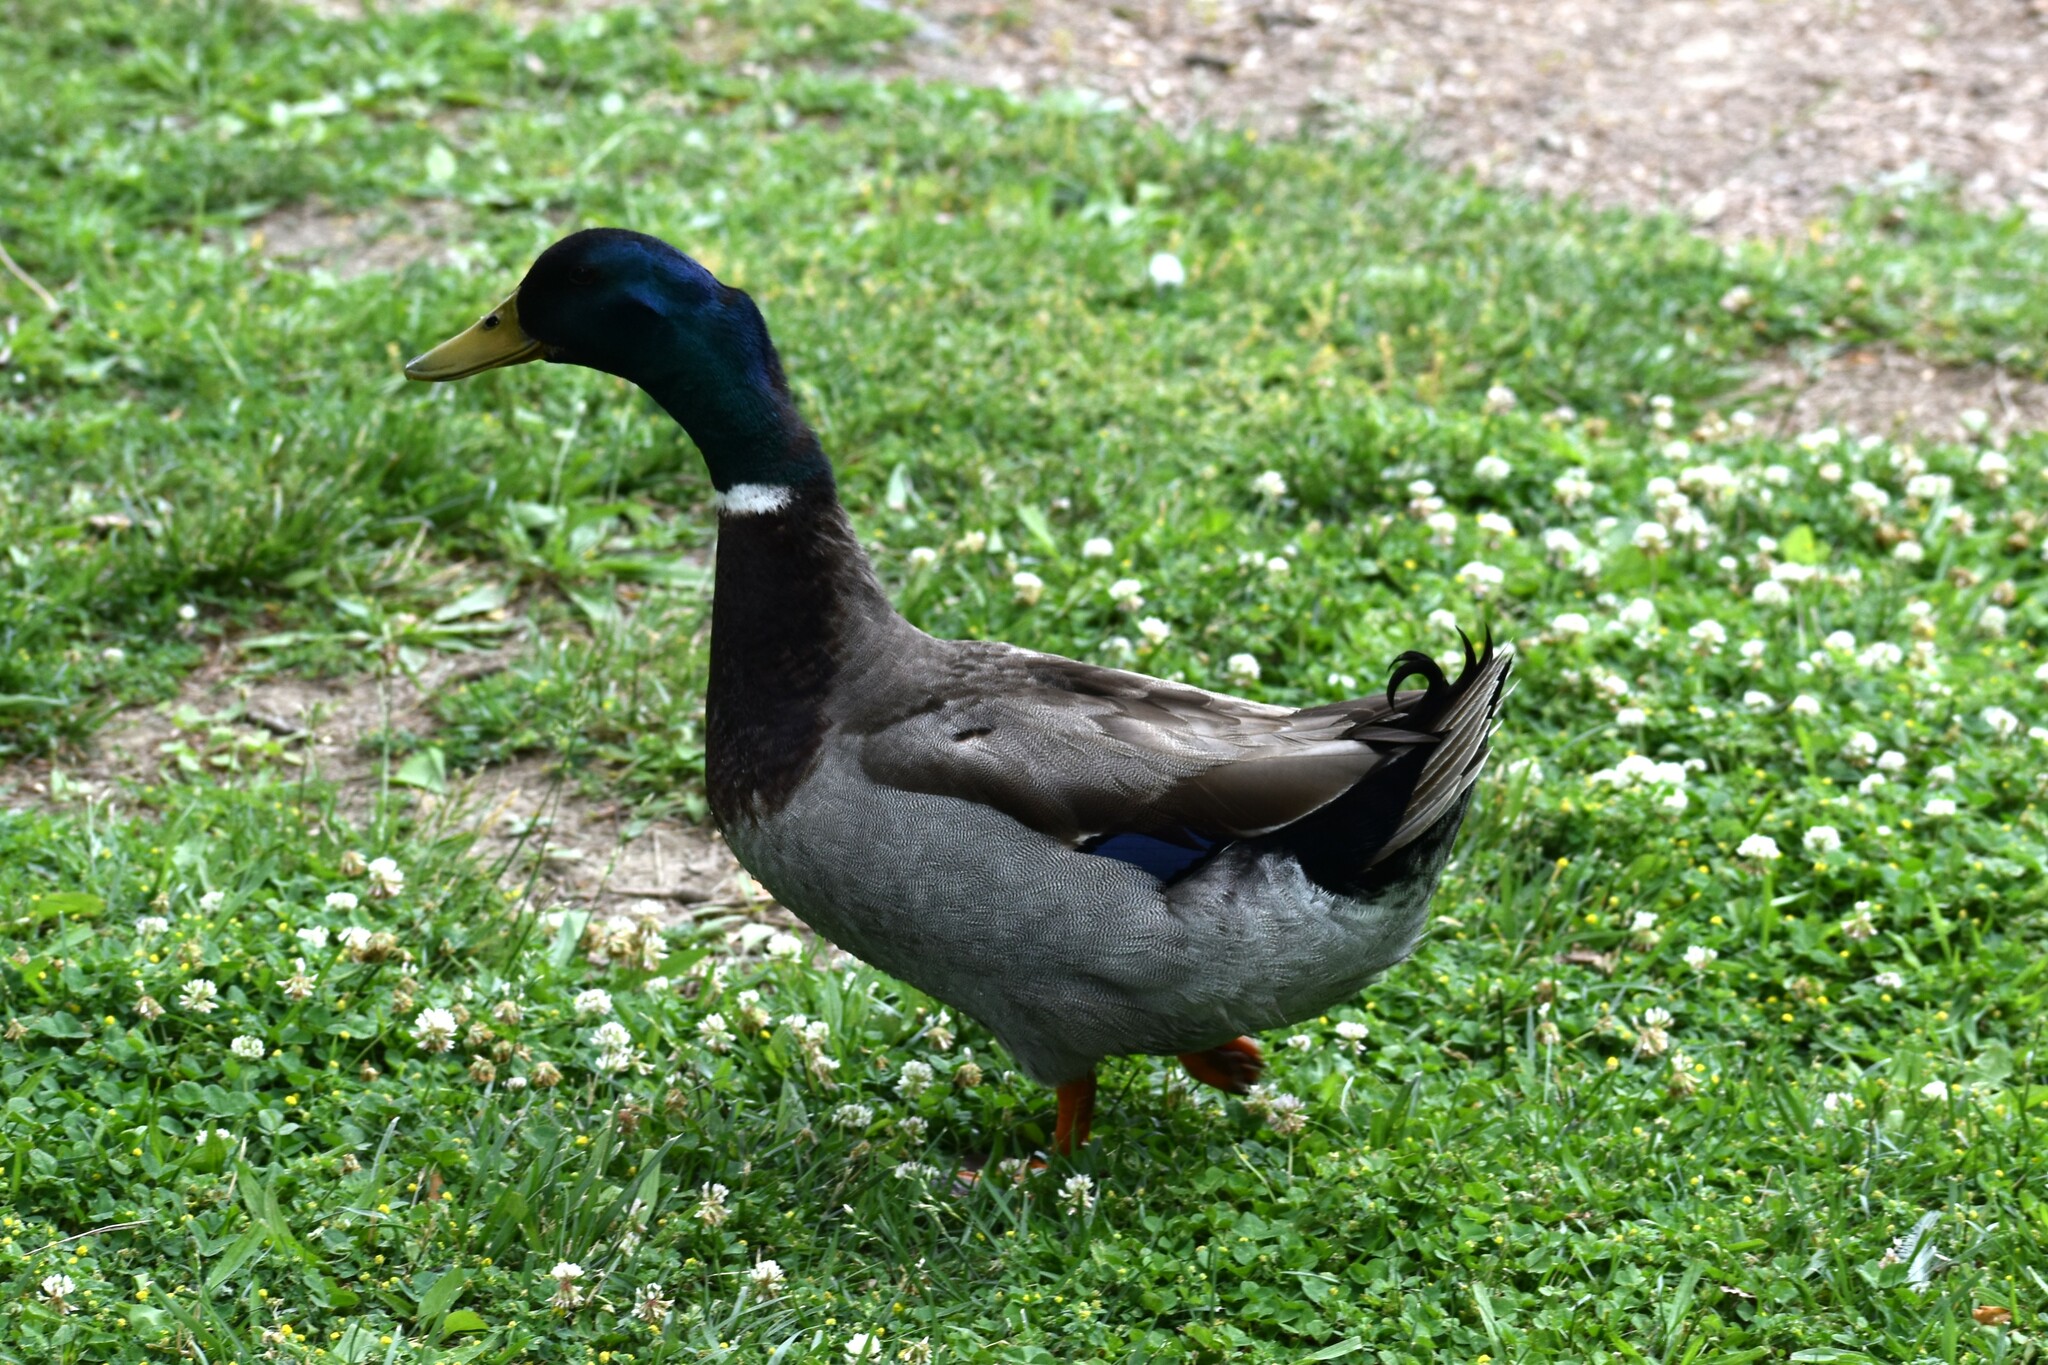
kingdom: Animalia
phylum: Chordata
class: Aves
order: Anseriformes
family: Anatidae
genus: Anas
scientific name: Anas platyrhynchos
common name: Mallard
